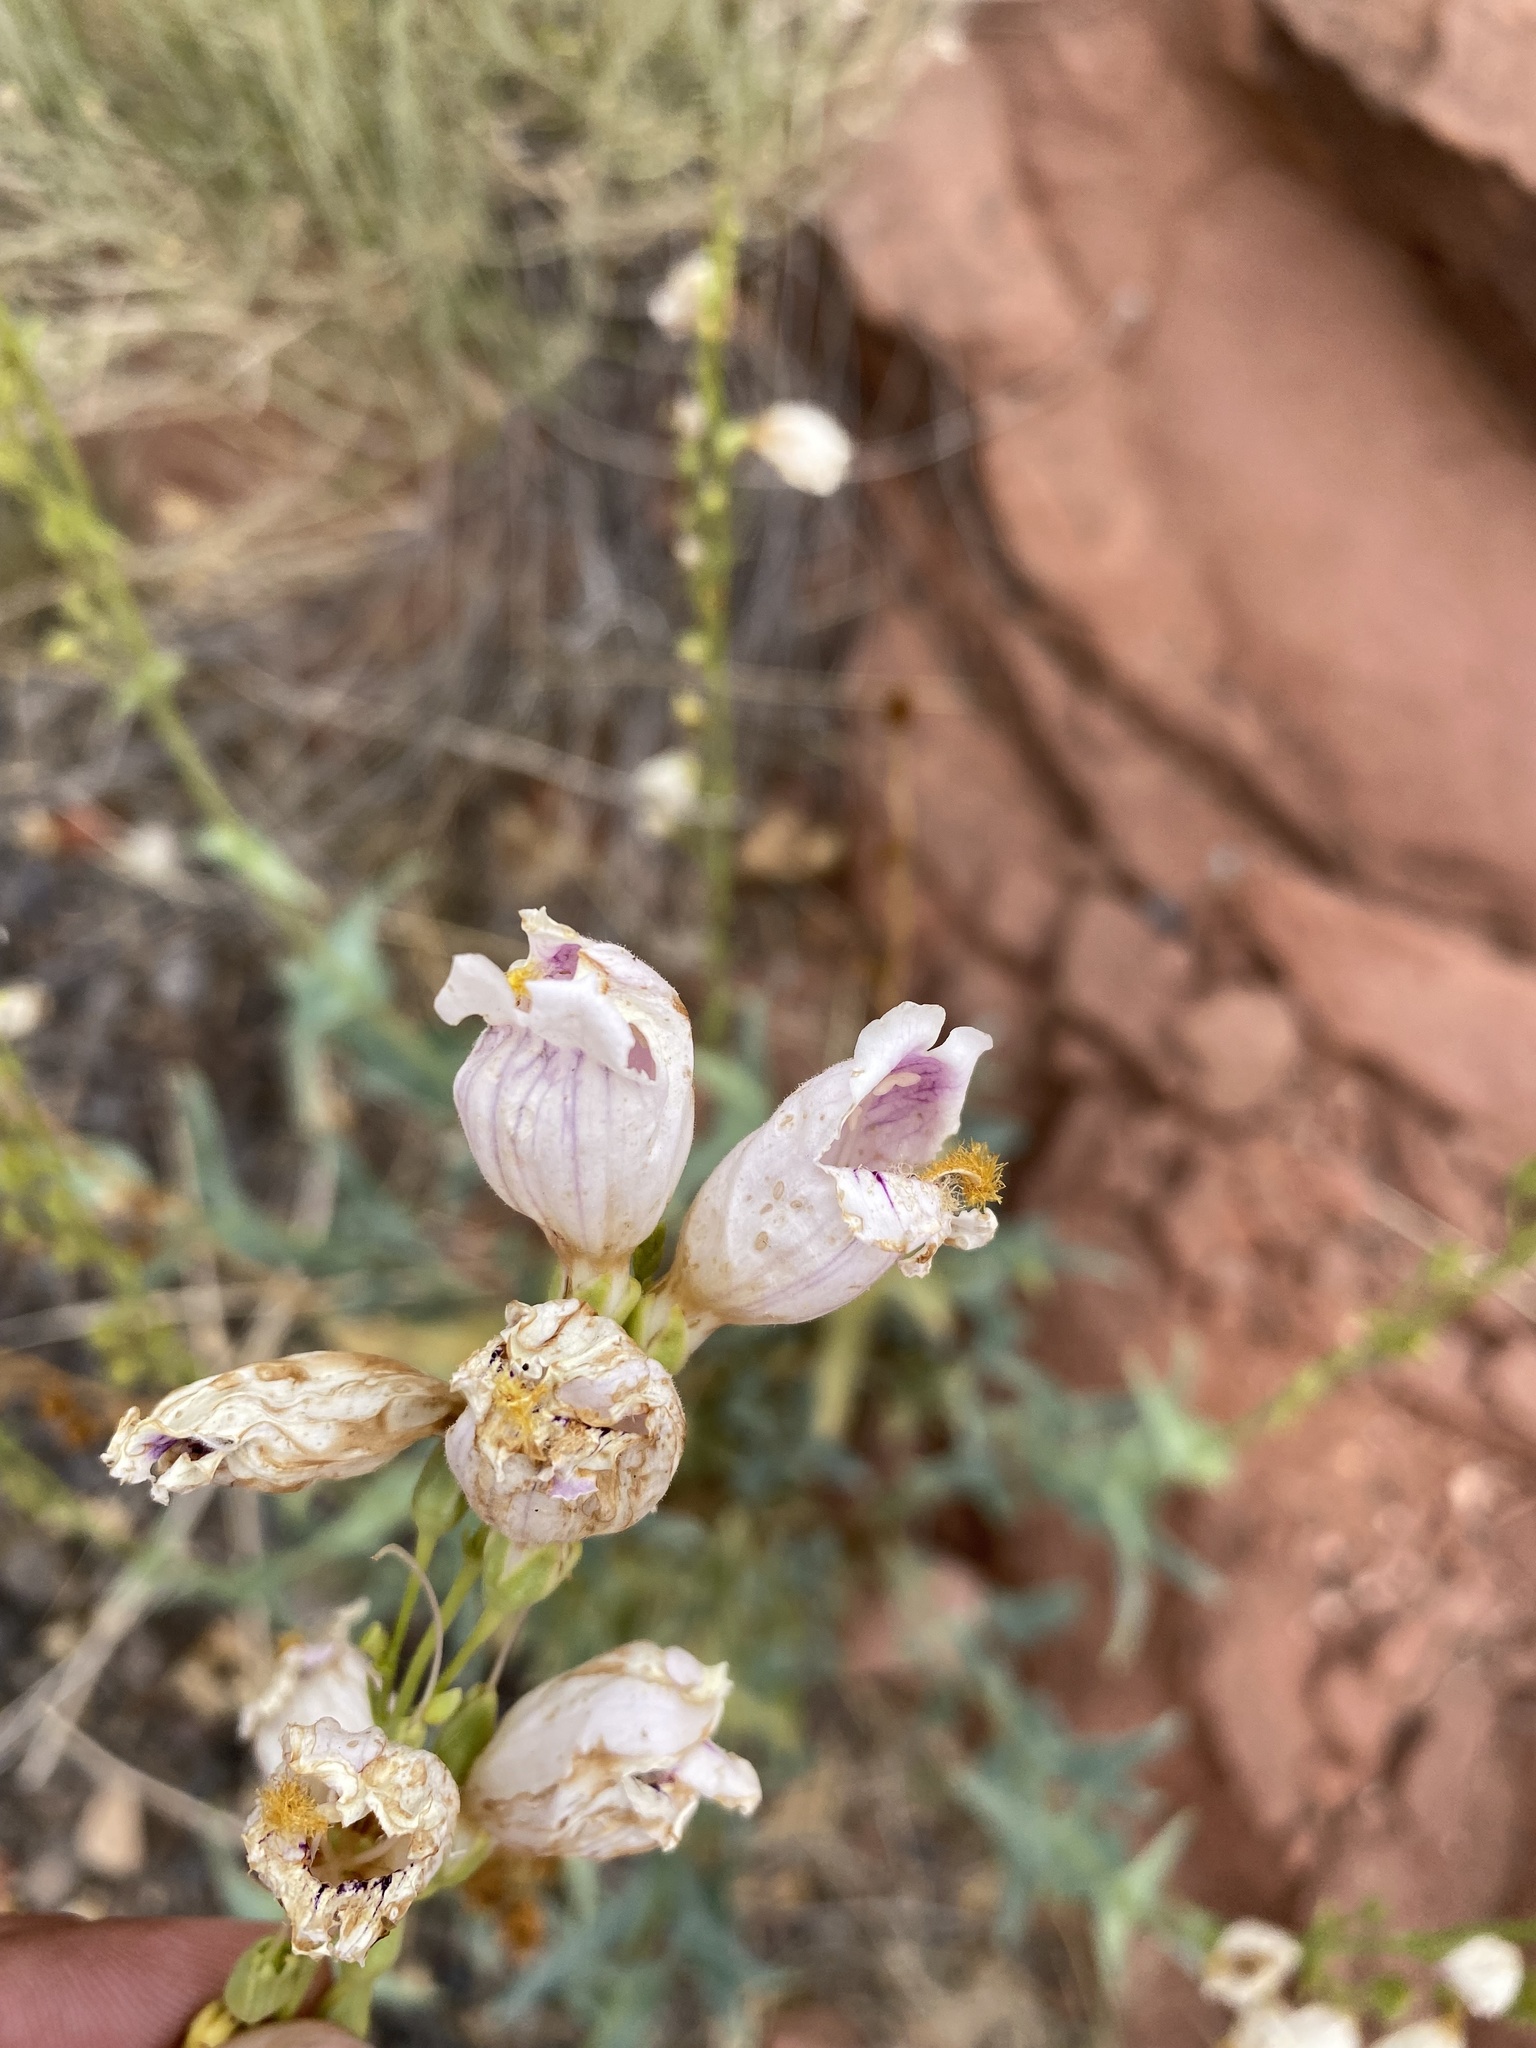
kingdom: Plantae
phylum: Tracheophyta
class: Magnoliopsida
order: Lamiales
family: Plantaginaceae
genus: Penstemon
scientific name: Penstemon palmeri
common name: Palmer penstemon
